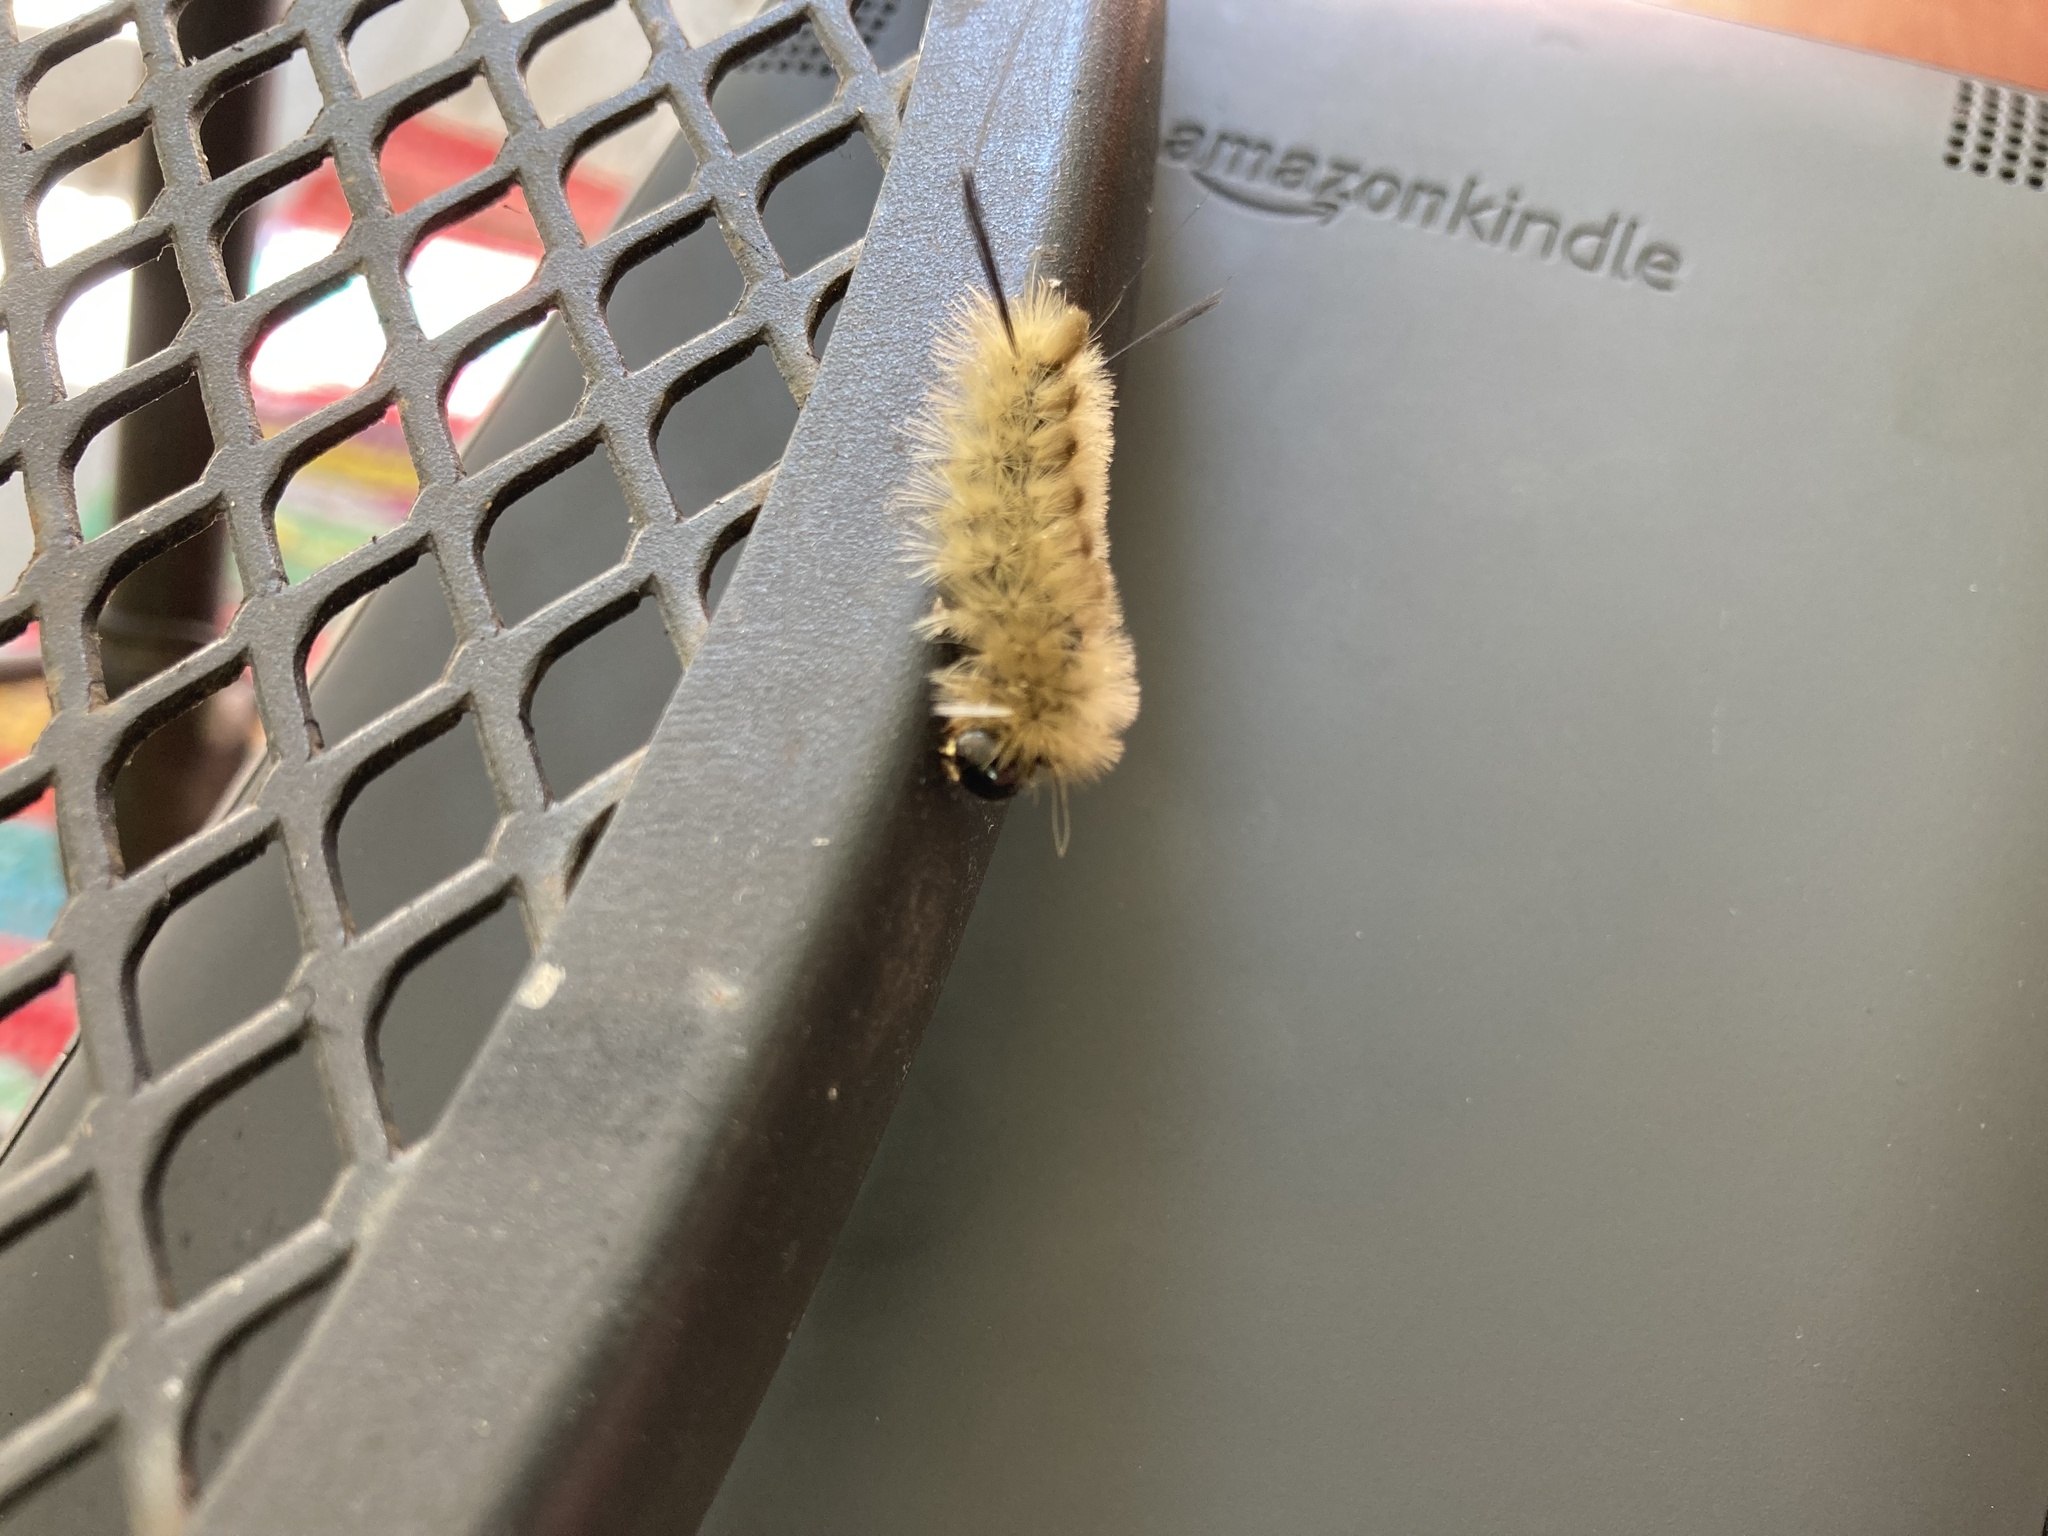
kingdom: Animalia
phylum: Arthropoda
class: Insecta
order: Lepidoptera
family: Erebidae
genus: Halysidota
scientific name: Halysidota tessellaris
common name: Banded tussock moth
